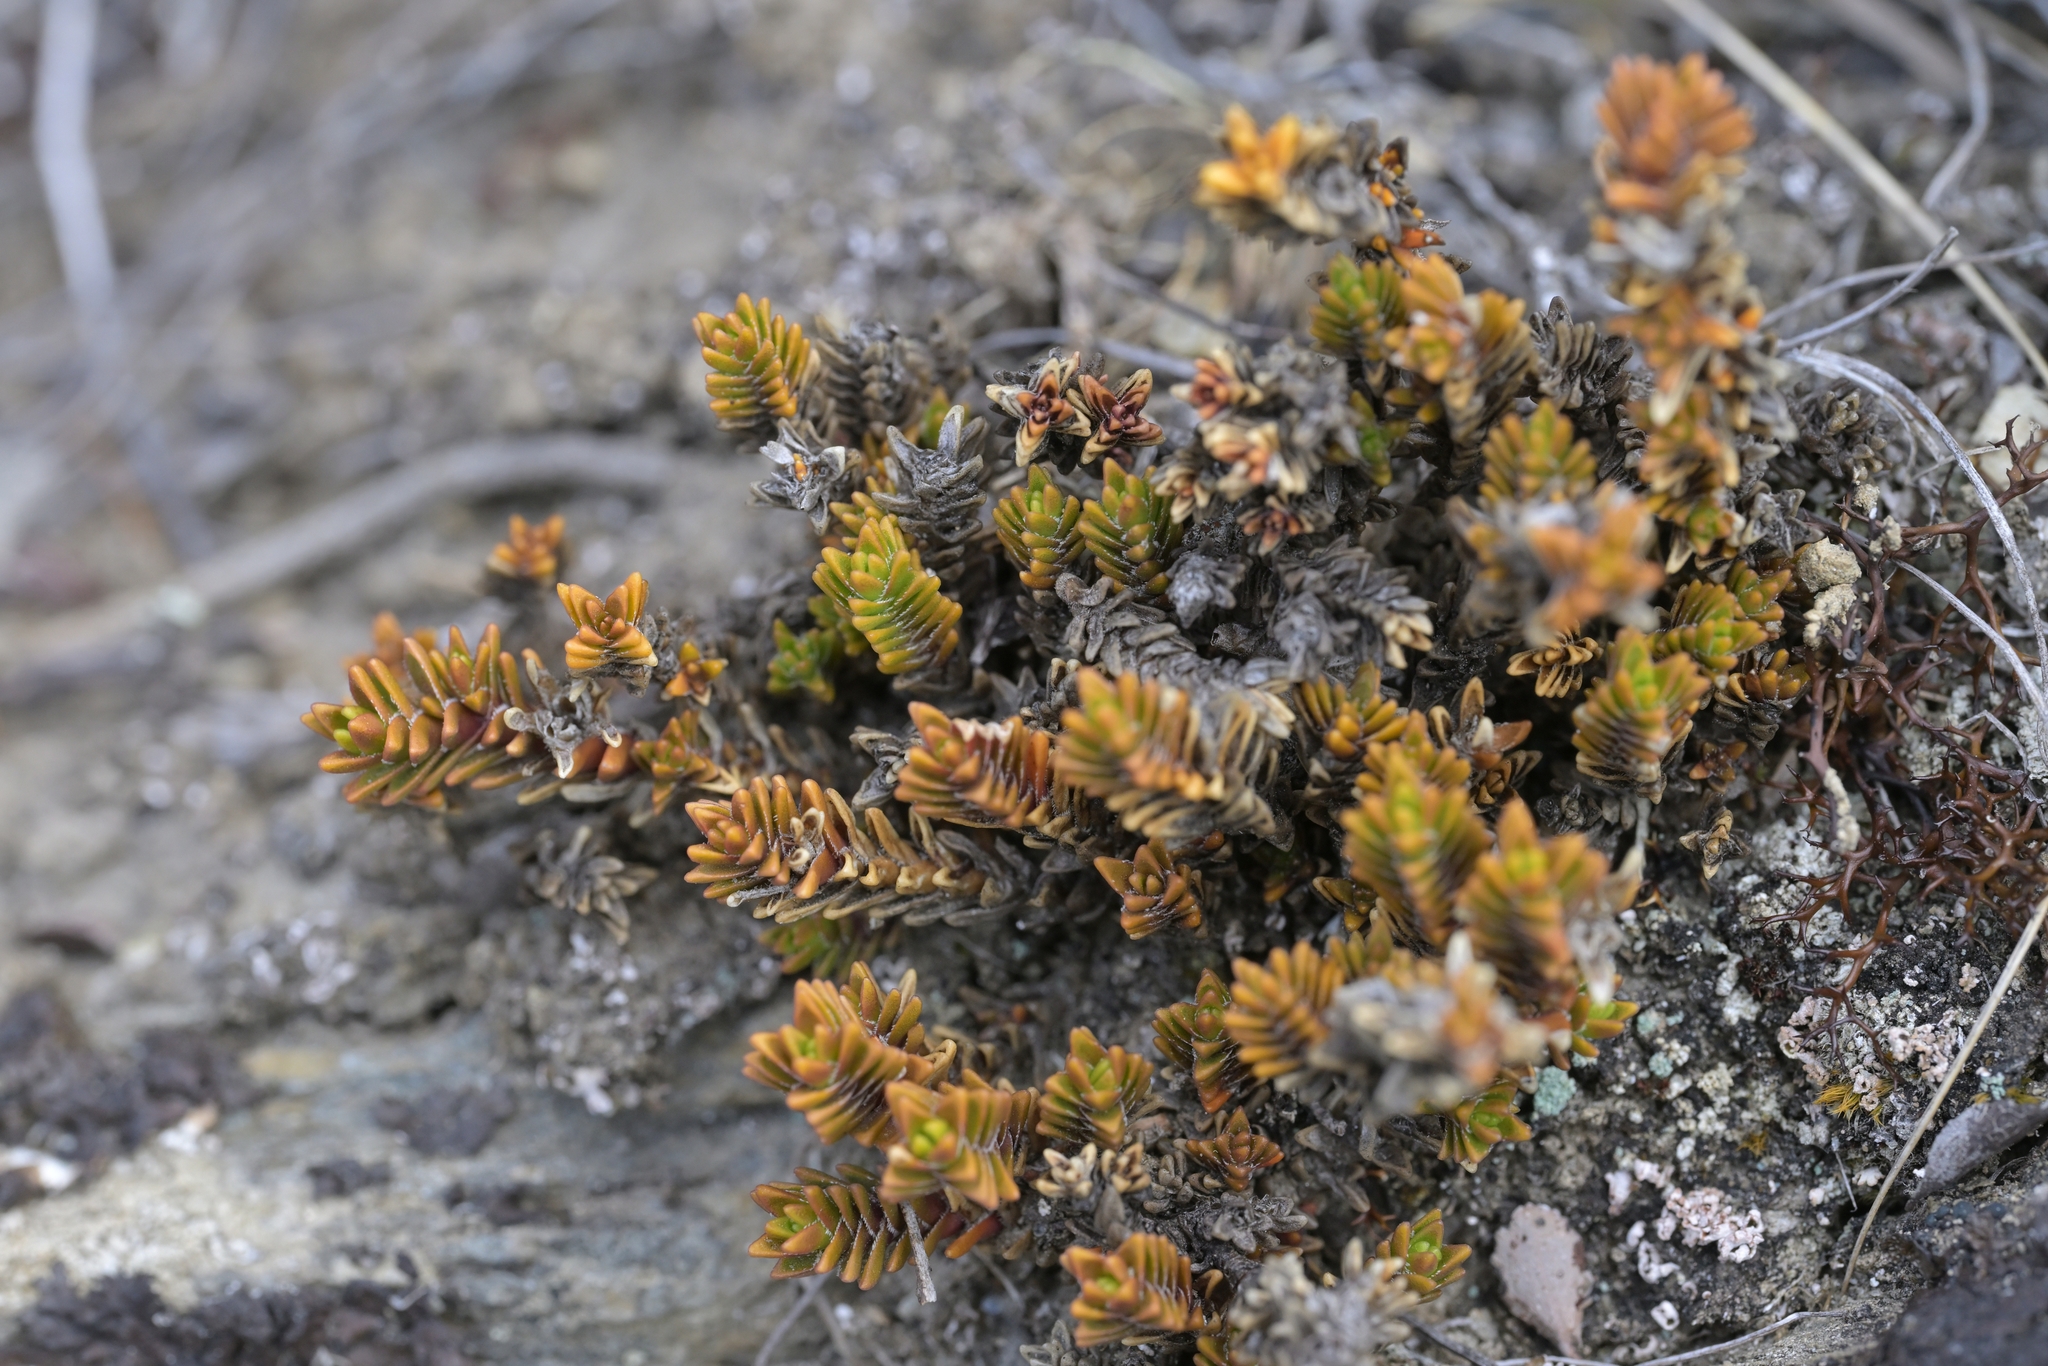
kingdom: Plantae
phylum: Tracheophyta
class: Magnoliopsida
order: Lamiales
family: Plantaginaceae
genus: Veronica
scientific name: Veronica densifolia
